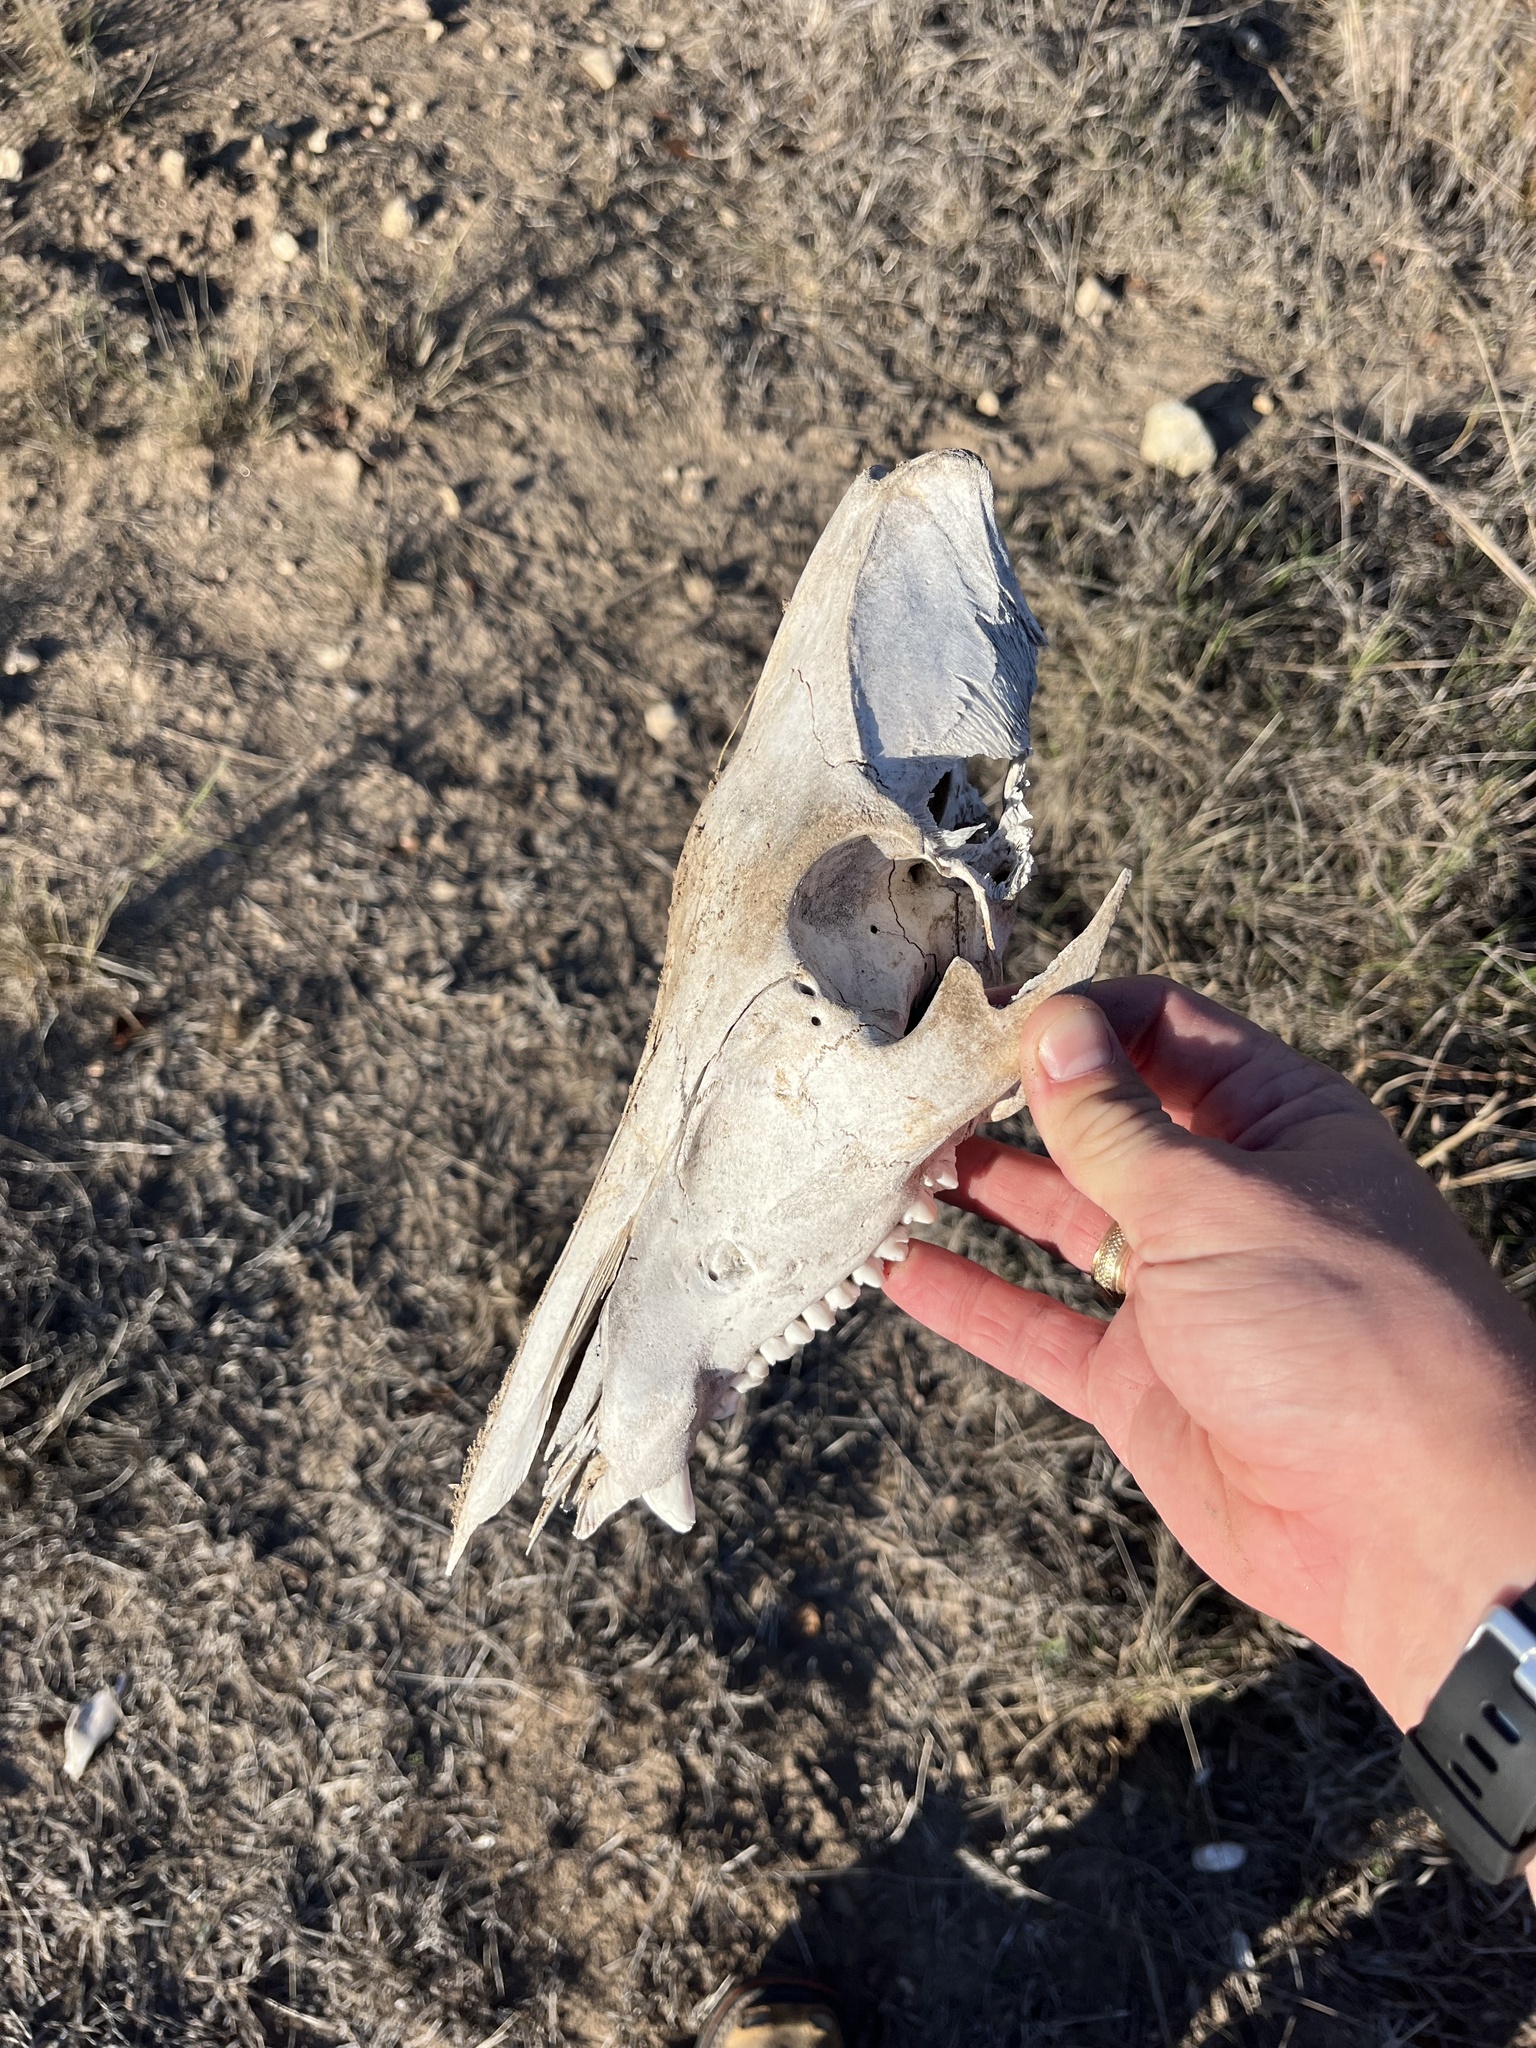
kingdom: Animalia
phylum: Chordata
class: Mammalia
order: Artiodactyla
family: Suidae
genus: Sus
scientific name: Sus scrofa
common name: Wild boar
